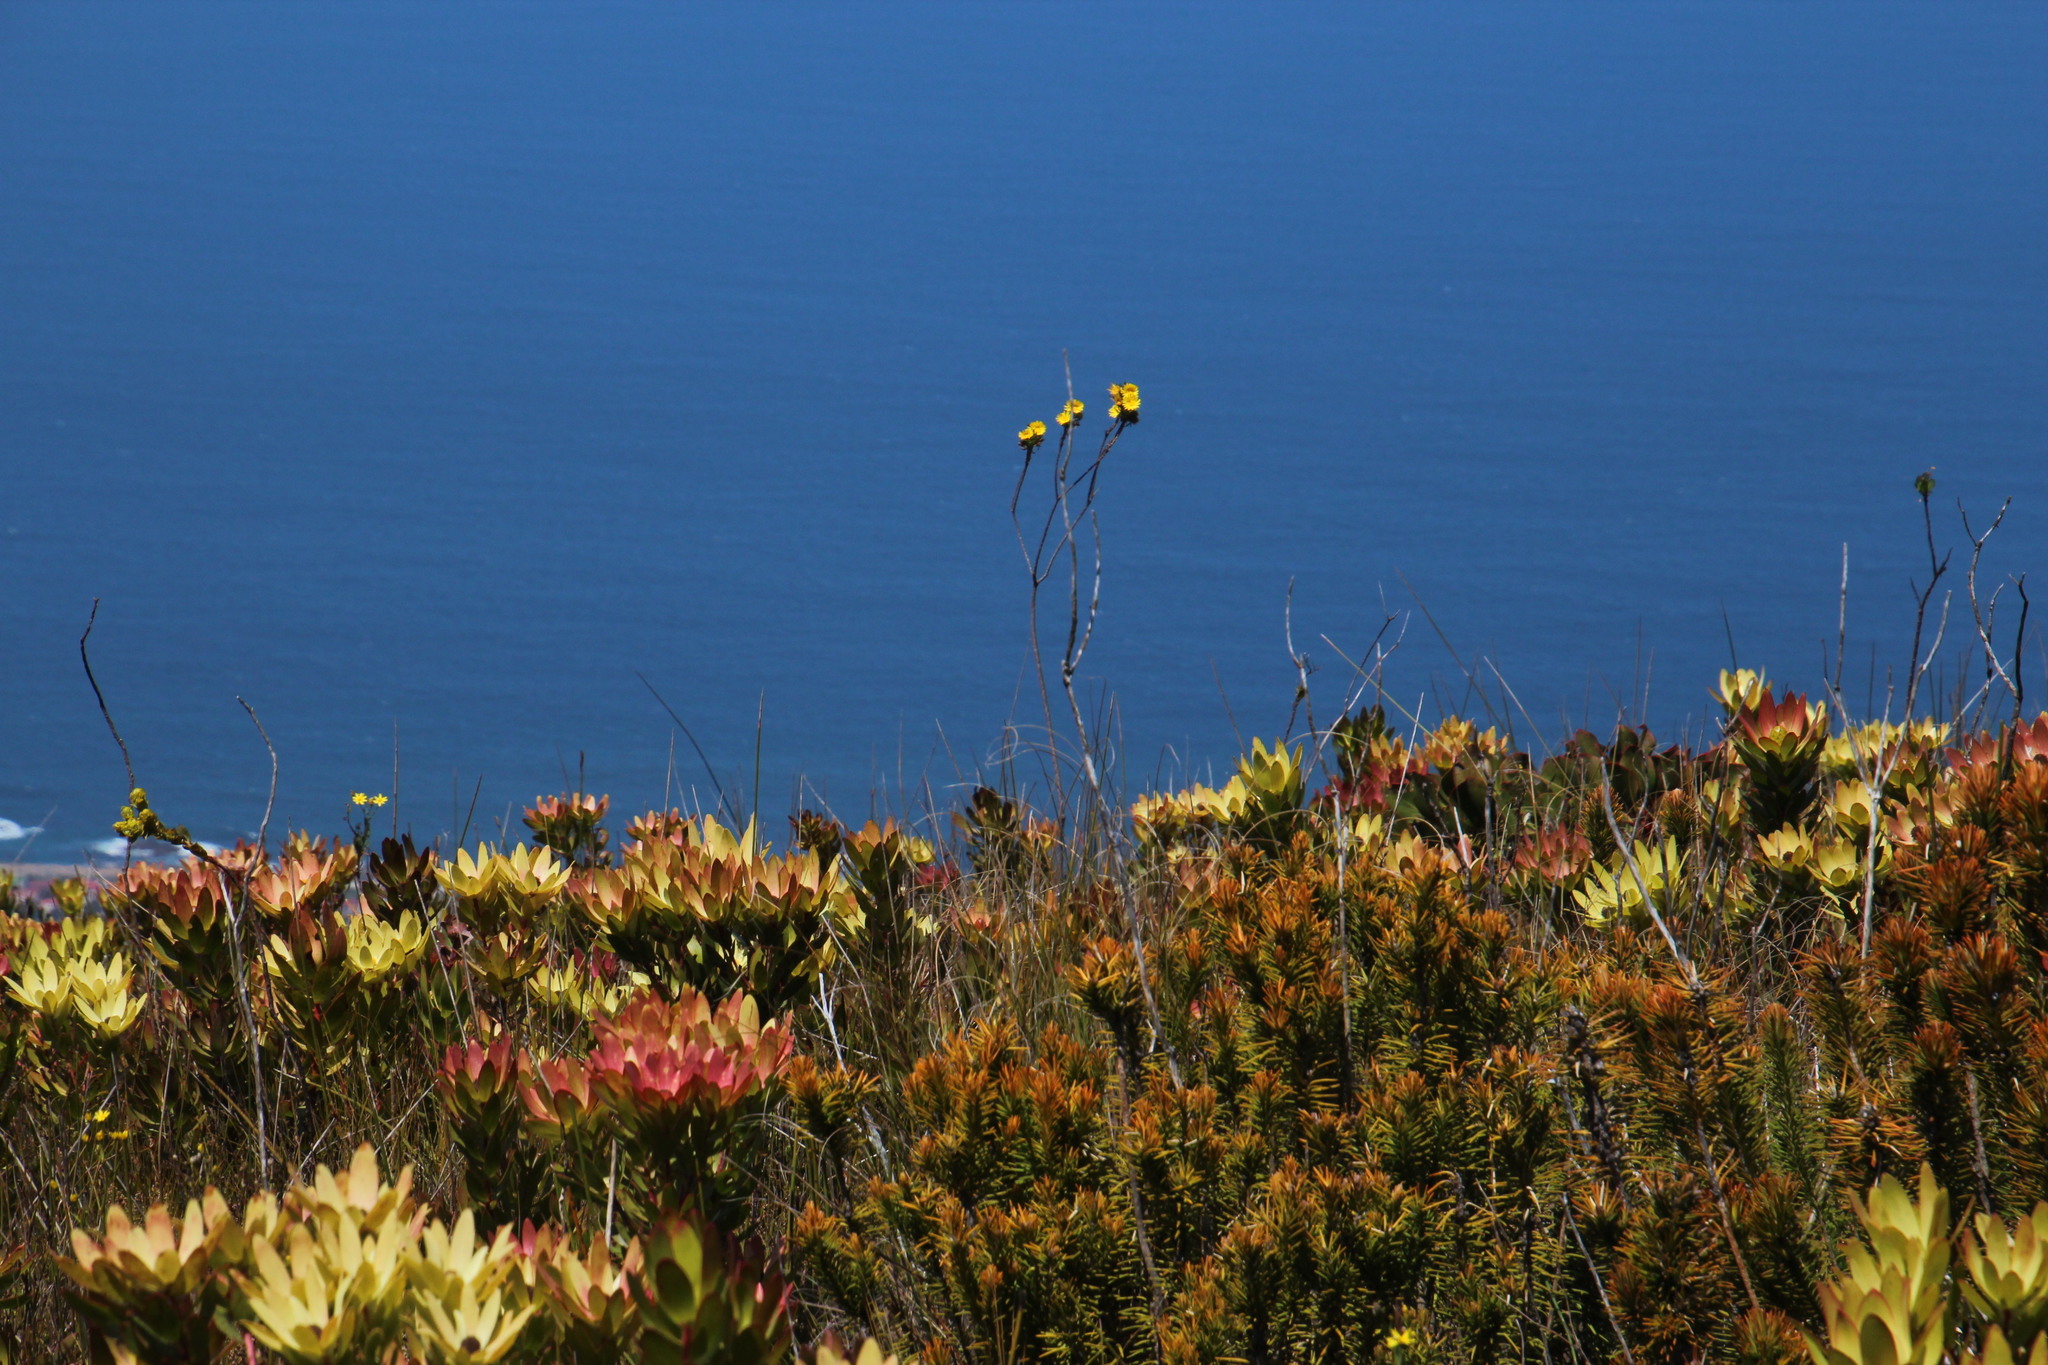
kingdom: Plantae
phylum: Tracheophyta
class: Magnoliopsida
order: Asterales
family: Asteraceae
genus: Ursinia
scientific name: Ursinia eckloniana
